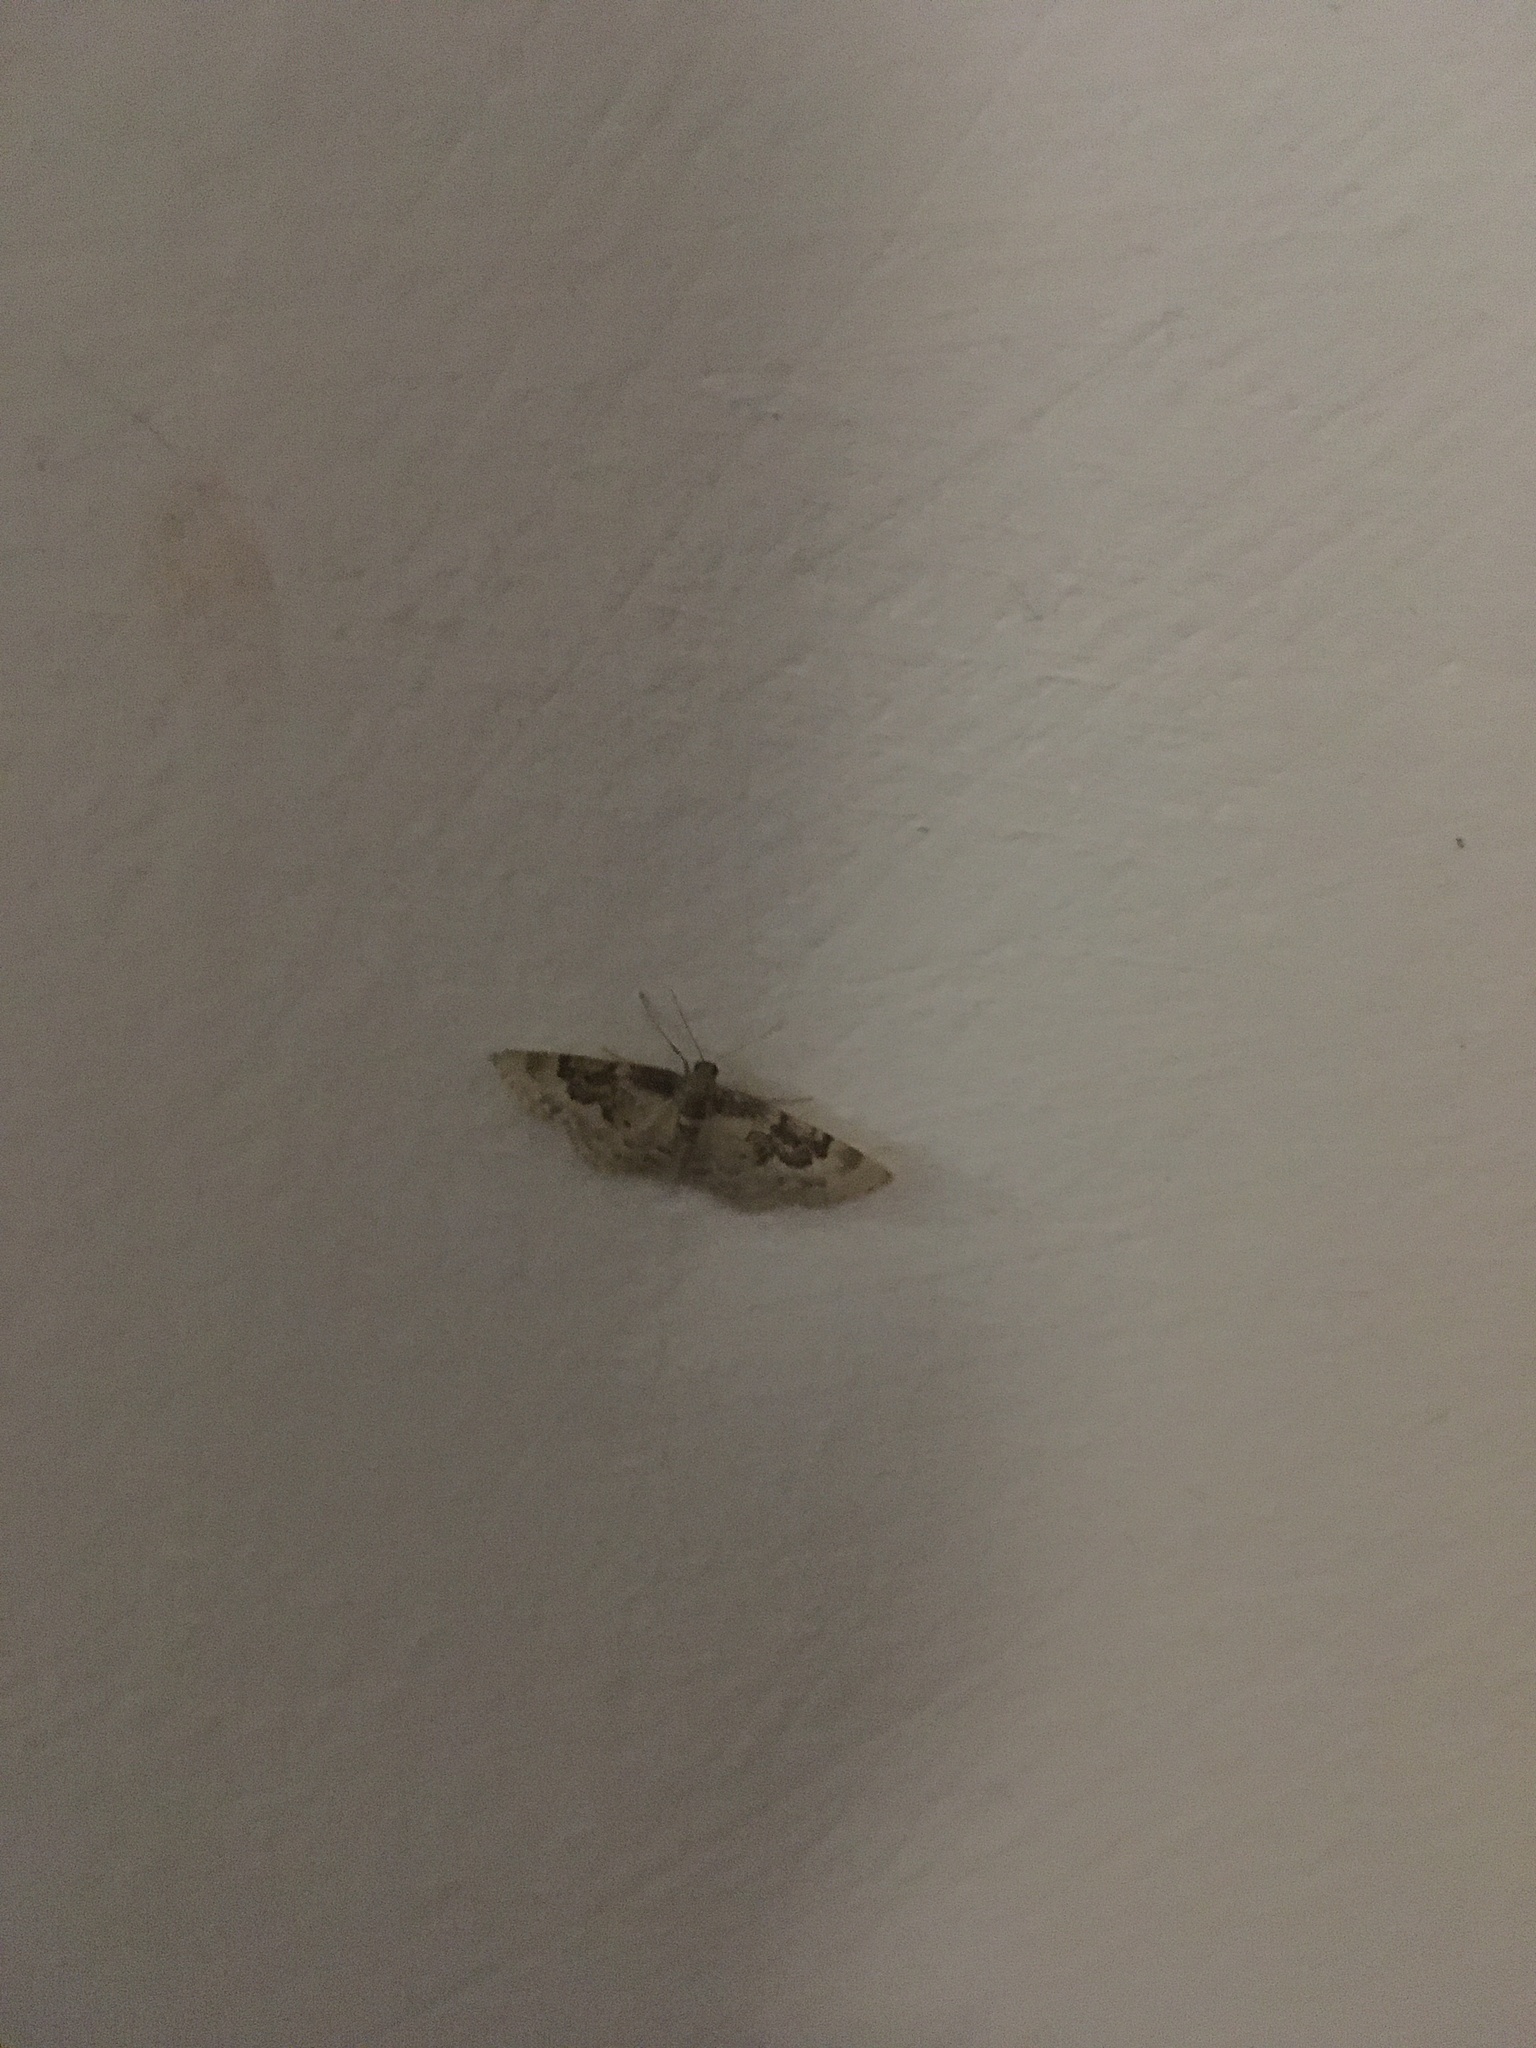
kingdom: Animalia
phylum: Arthropoda
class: Insecta
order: Lepidoptera
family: Geometridae
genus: Idaea
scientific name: Idaea rusticata
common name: Least carpet
